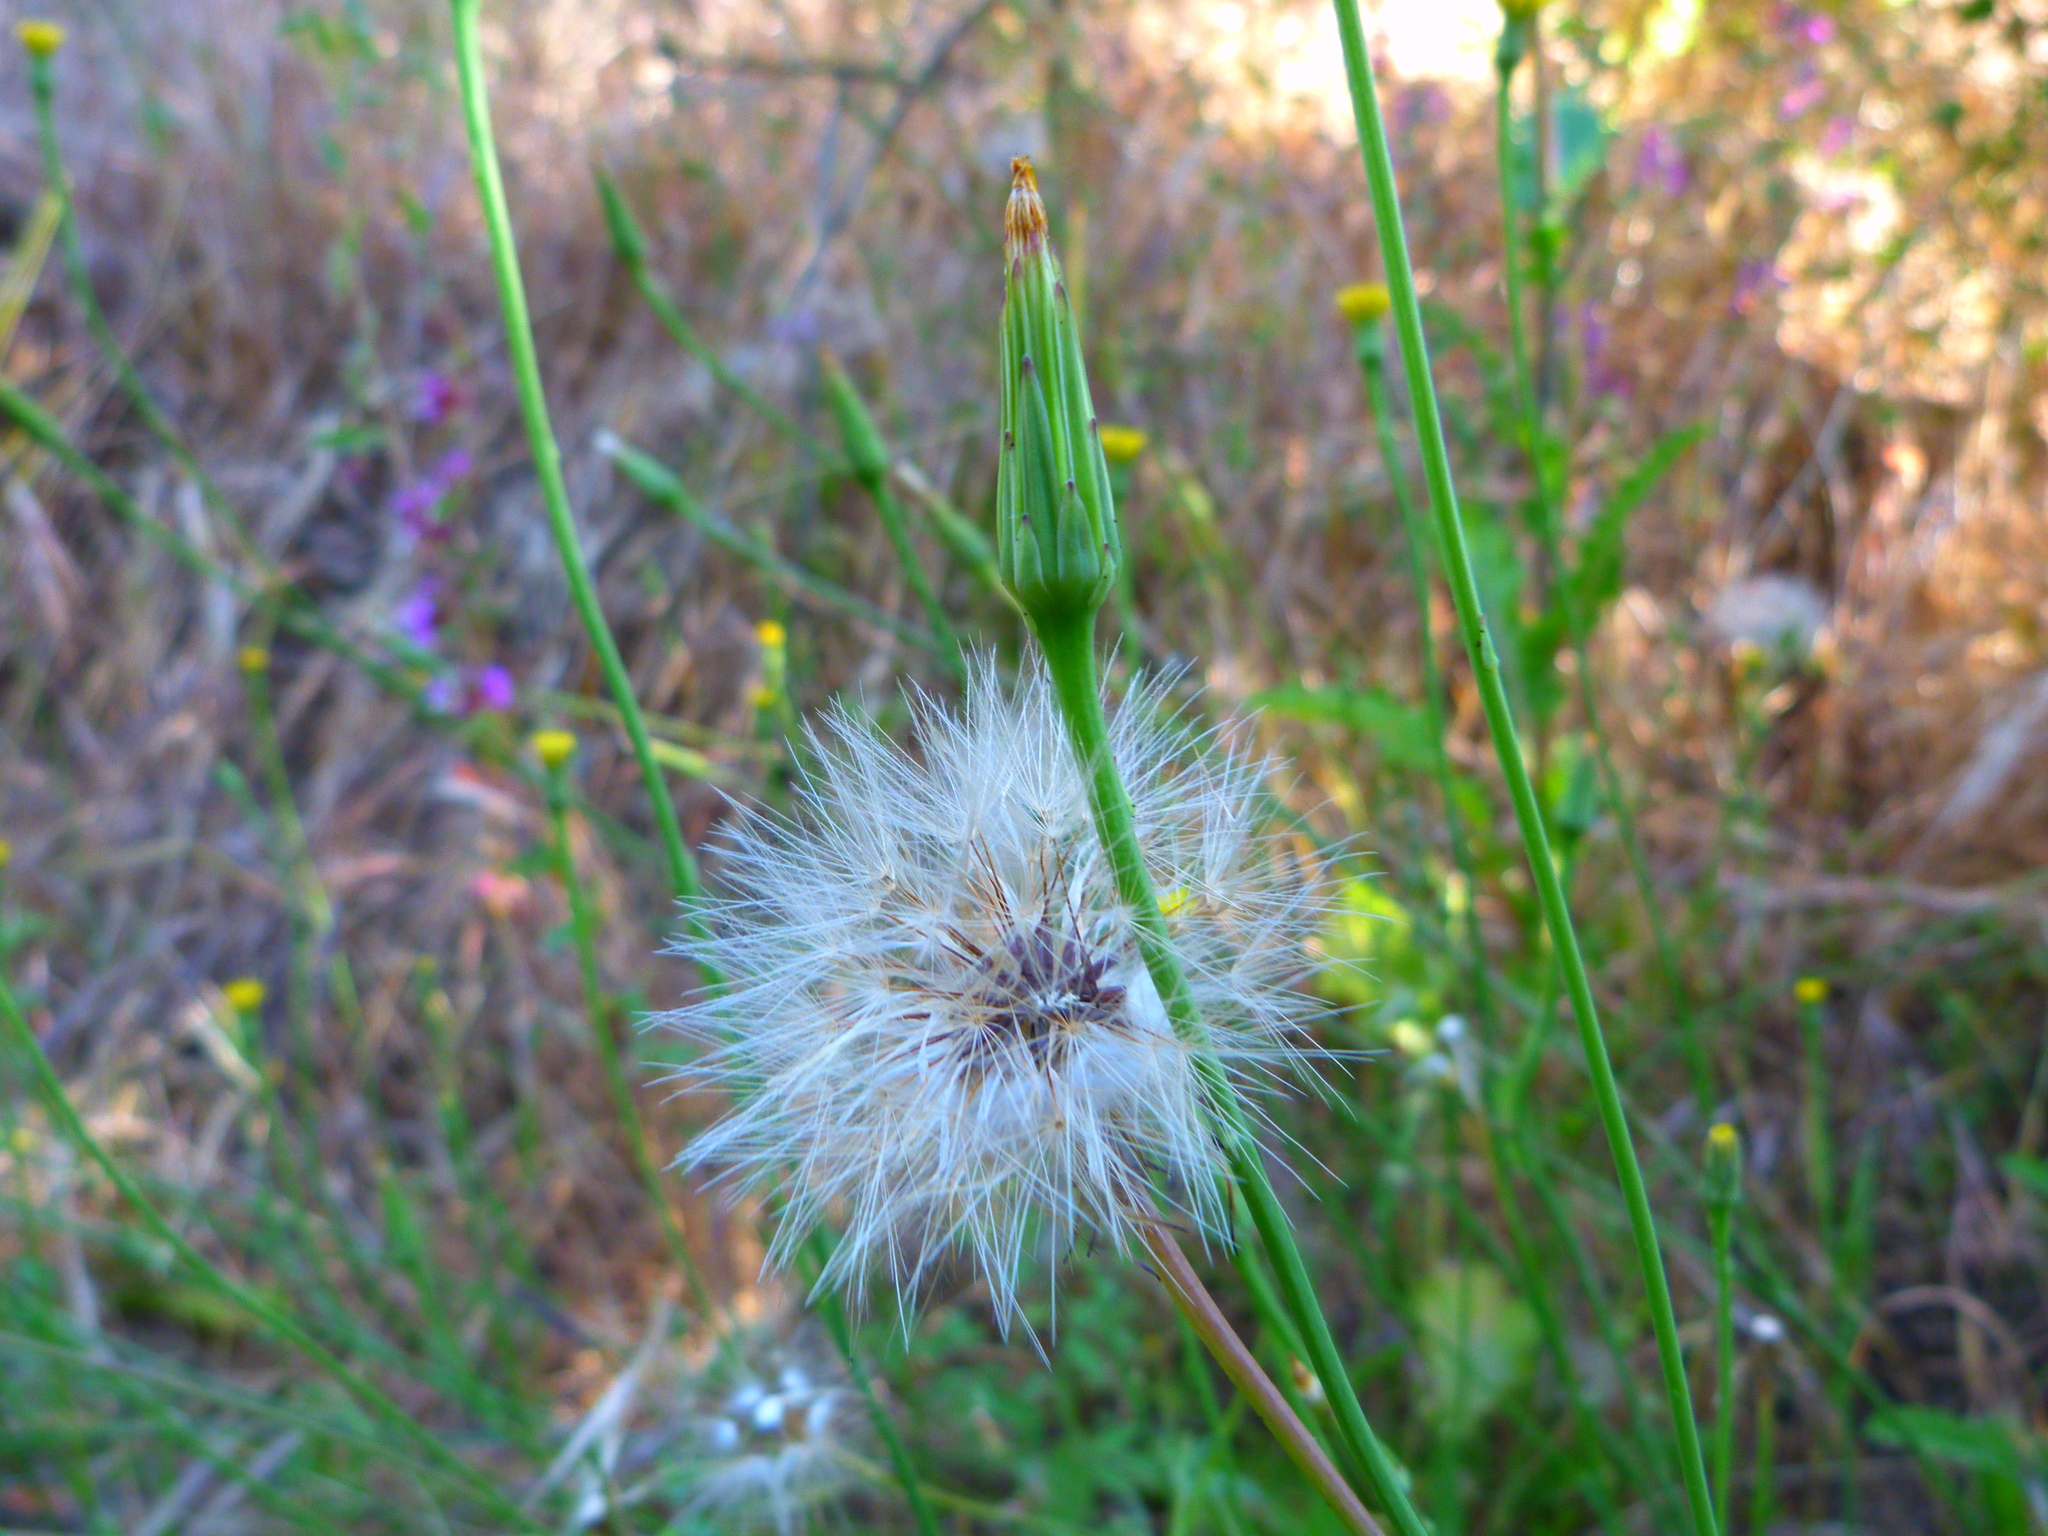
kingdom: Plantae
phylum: Tracheophyta
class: Magnoliopsida
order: Asterales
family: Asteraceae
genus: Hypochaeris
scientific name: Hypochaeris glabra
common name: Smooth catsear
